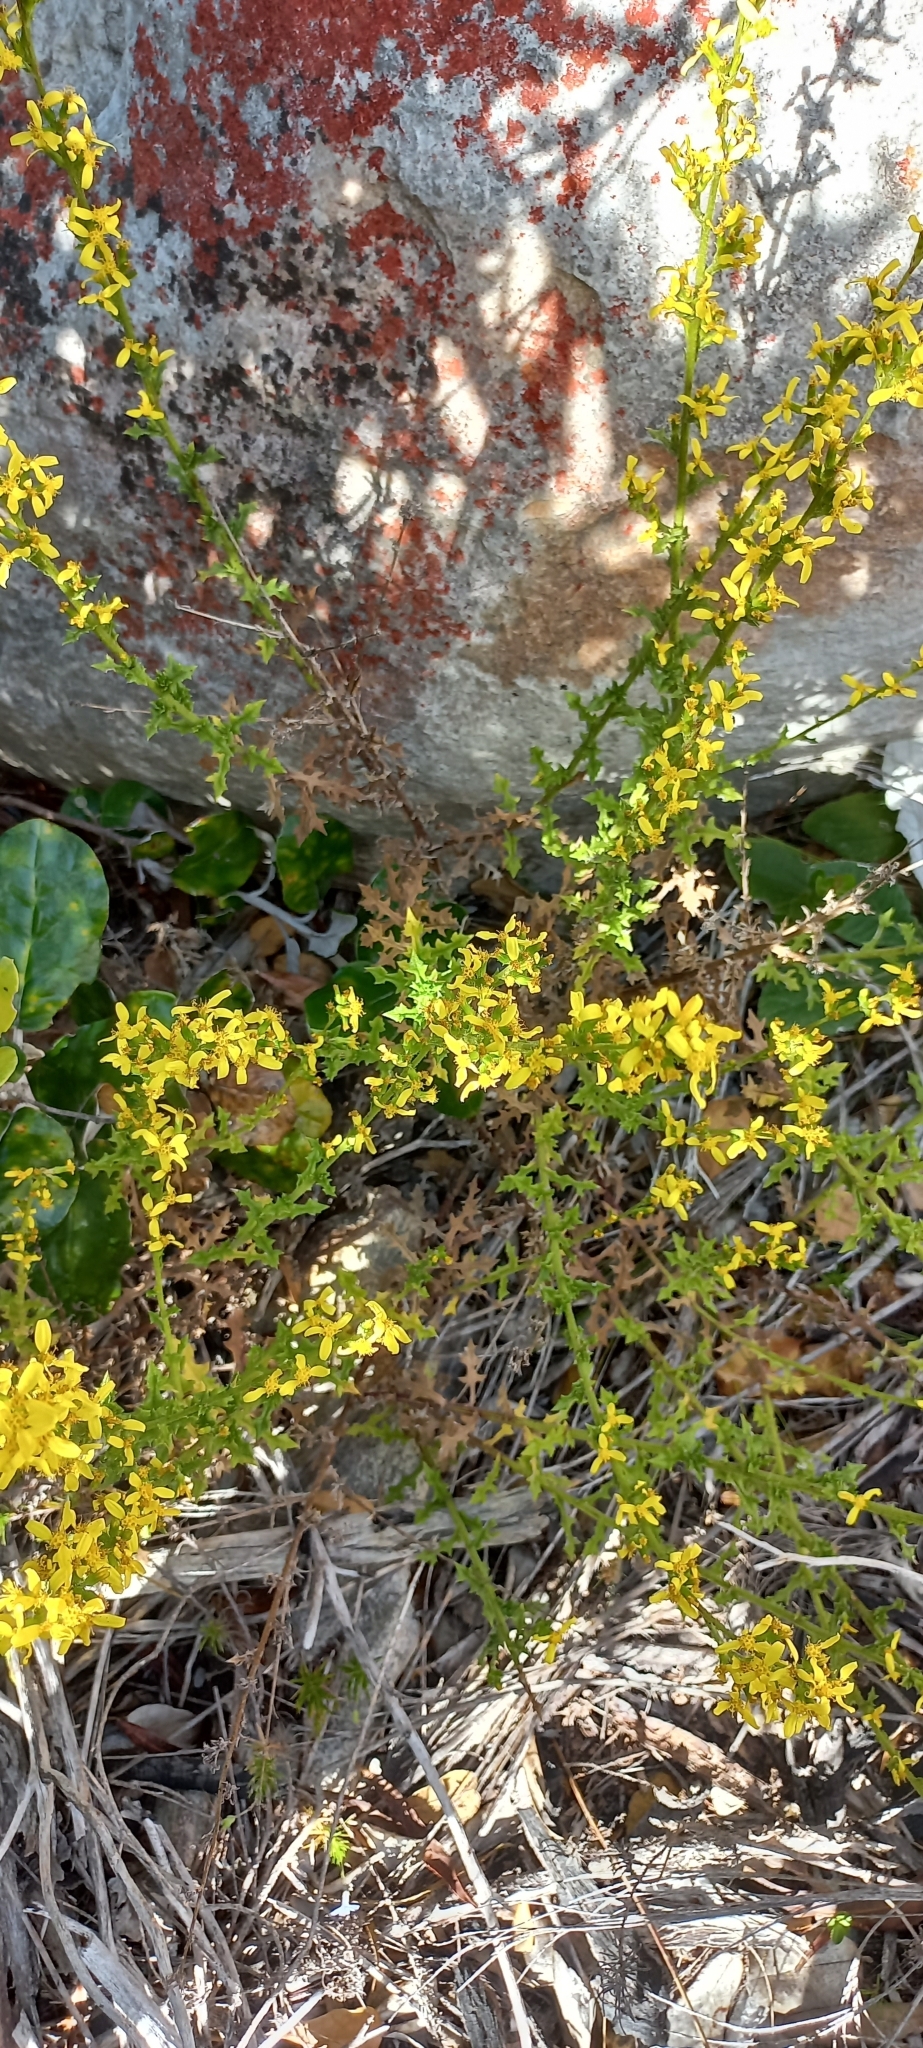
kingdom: Plantae
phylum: Tracheophyta
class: Magnoliopsida
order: Asterales
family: Asteraceae
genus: Senecio
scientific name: Senecio pubigerus
